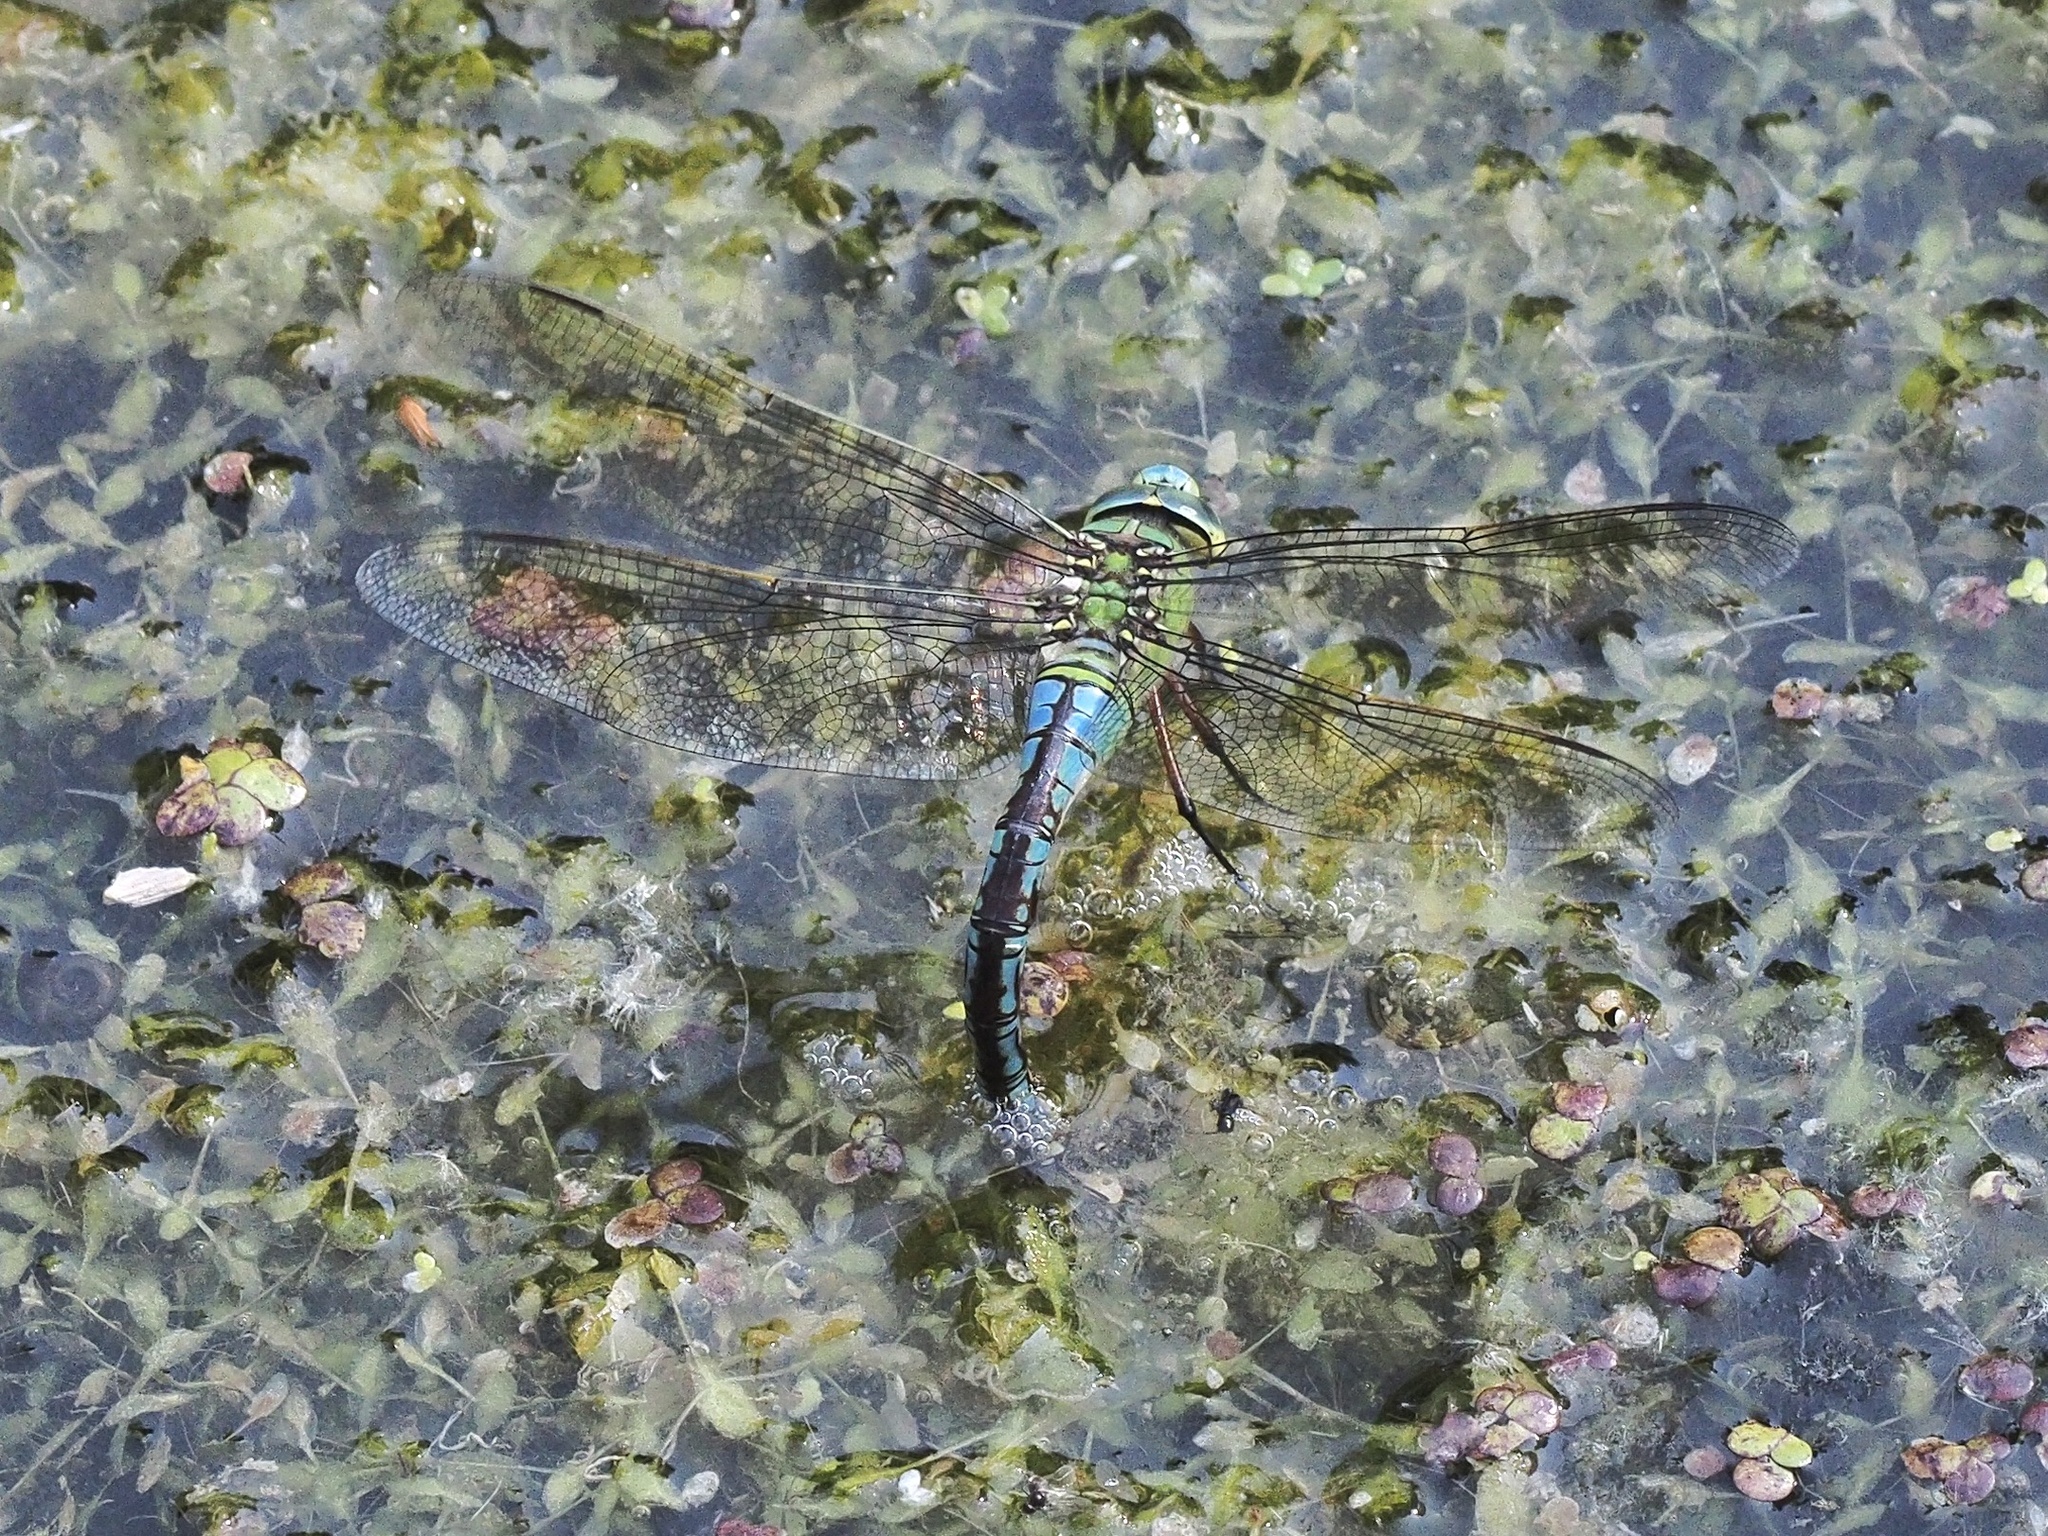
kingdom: Animalia
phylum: Arthropoda
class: Insecta
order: Odonata
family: Aeshnidae
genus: Anax
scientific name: Anax imperator
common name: Emperor dragonfly
